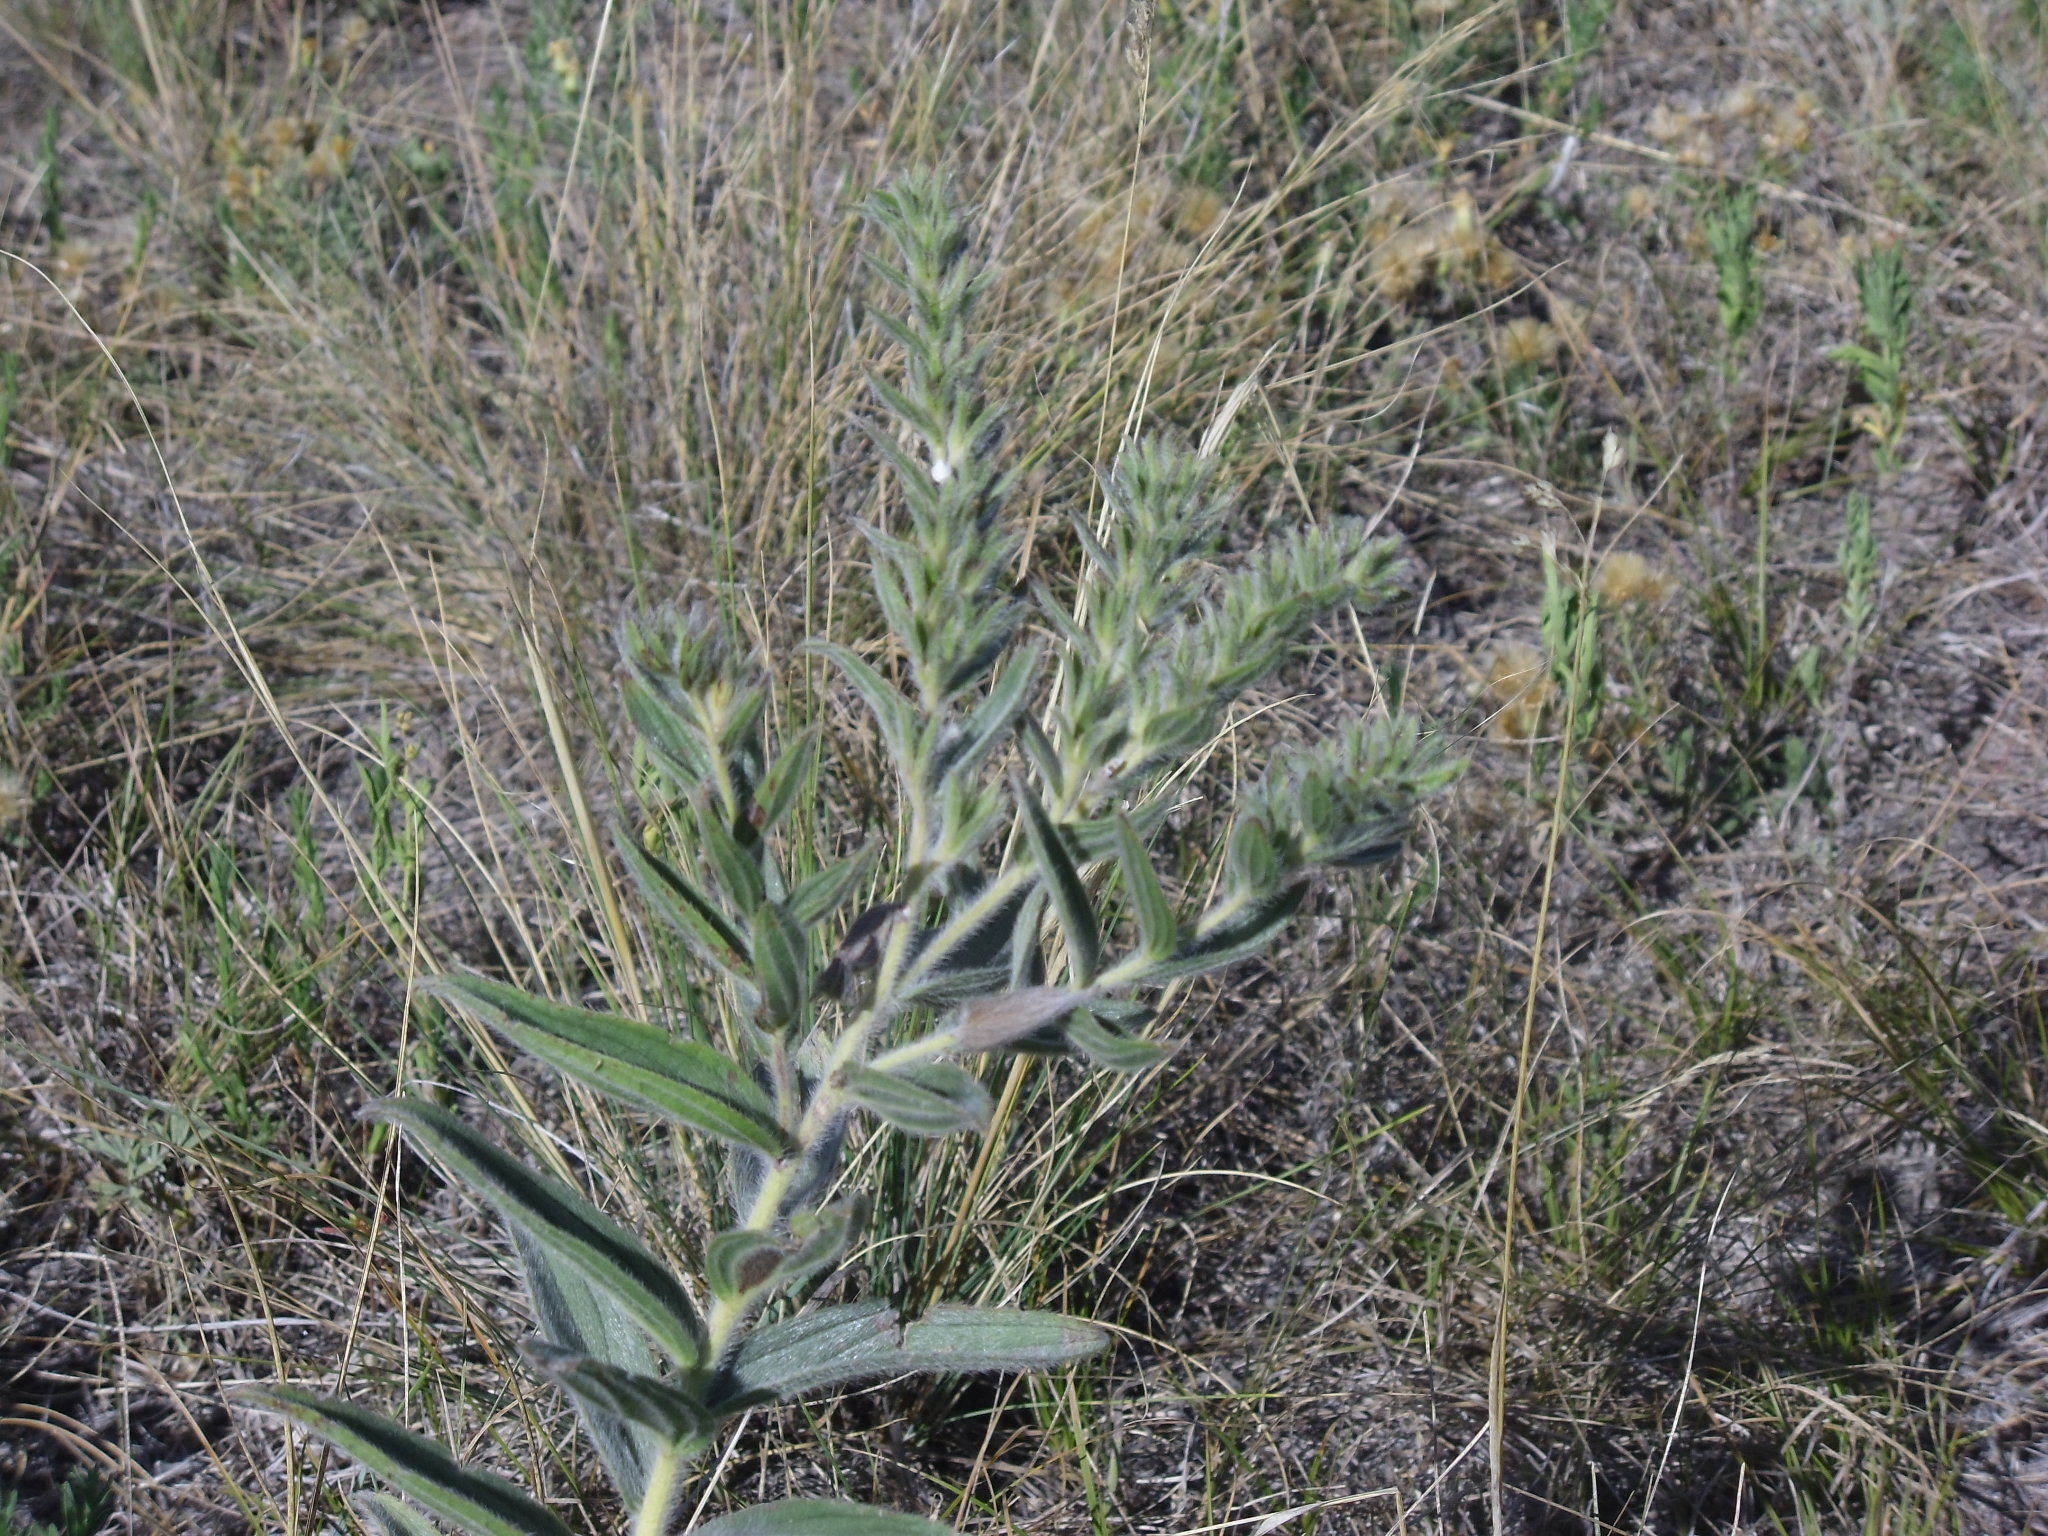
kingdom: Plantae
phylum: Tracheophyta
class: Magnoliopsida
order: Boraginales
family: Boraginaceae
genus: Lithospermum
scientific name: Lithospermum occidentale
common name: Western false gromwell
